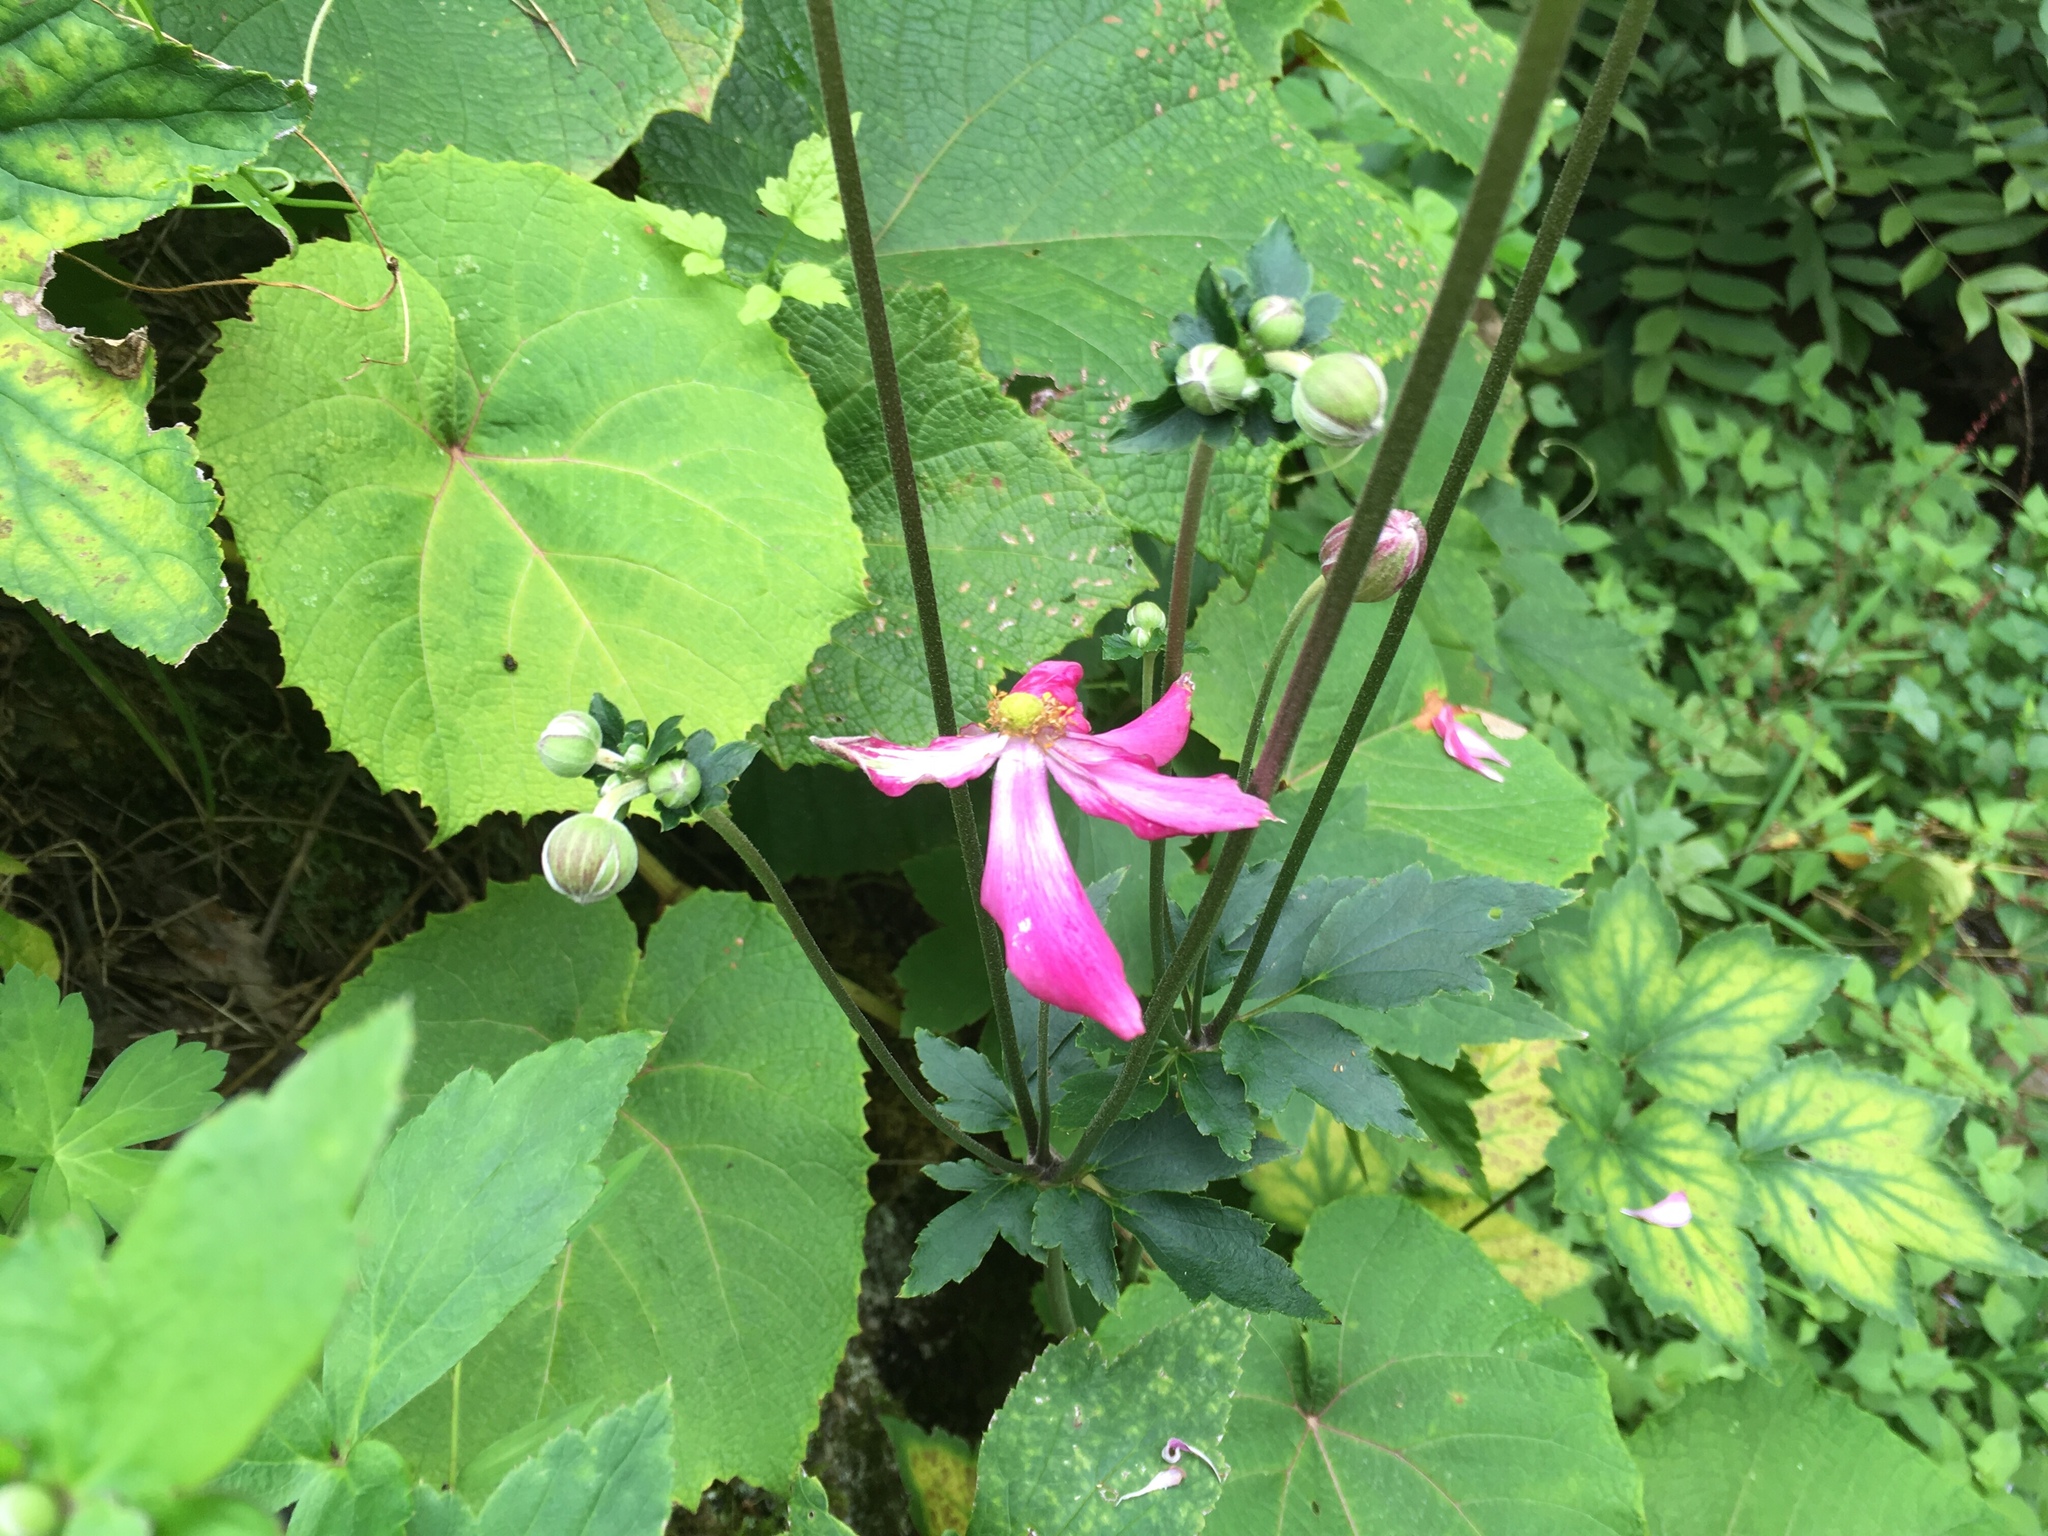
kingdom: Plantae
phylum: Tracheophyta
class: Magnoliopsida
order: Ranunculales
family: Ranunculaceae
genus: Eriocapitella
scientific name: Eriocapitella japonica
